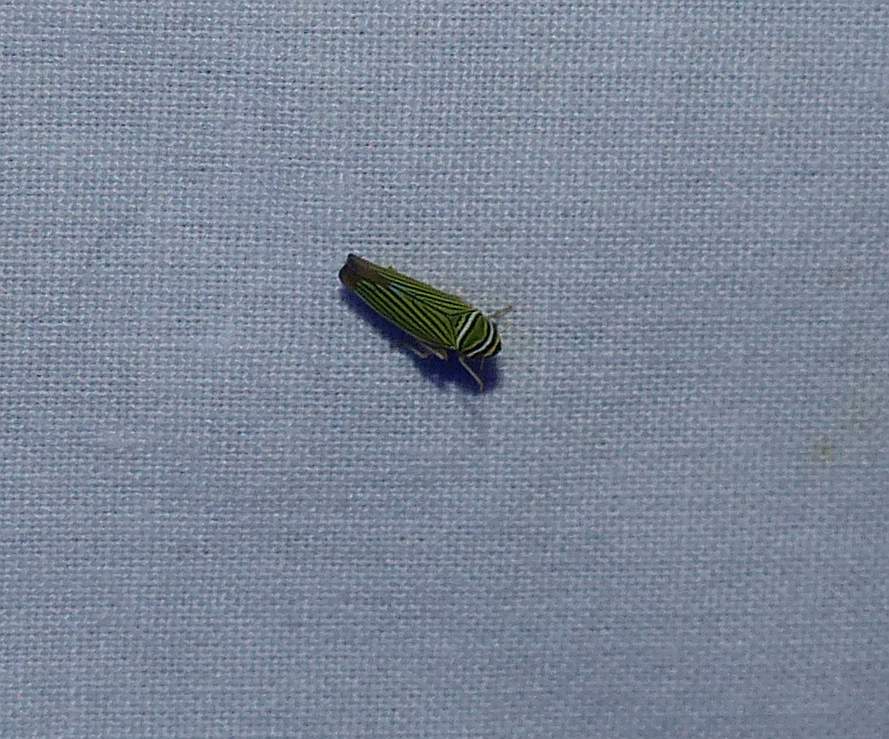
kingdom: Animalia
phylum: Arthropoda
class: Insecta
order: Hemiptera
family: Cicadellidae
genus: Tylozygus
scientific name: Tylozygus bifidus
